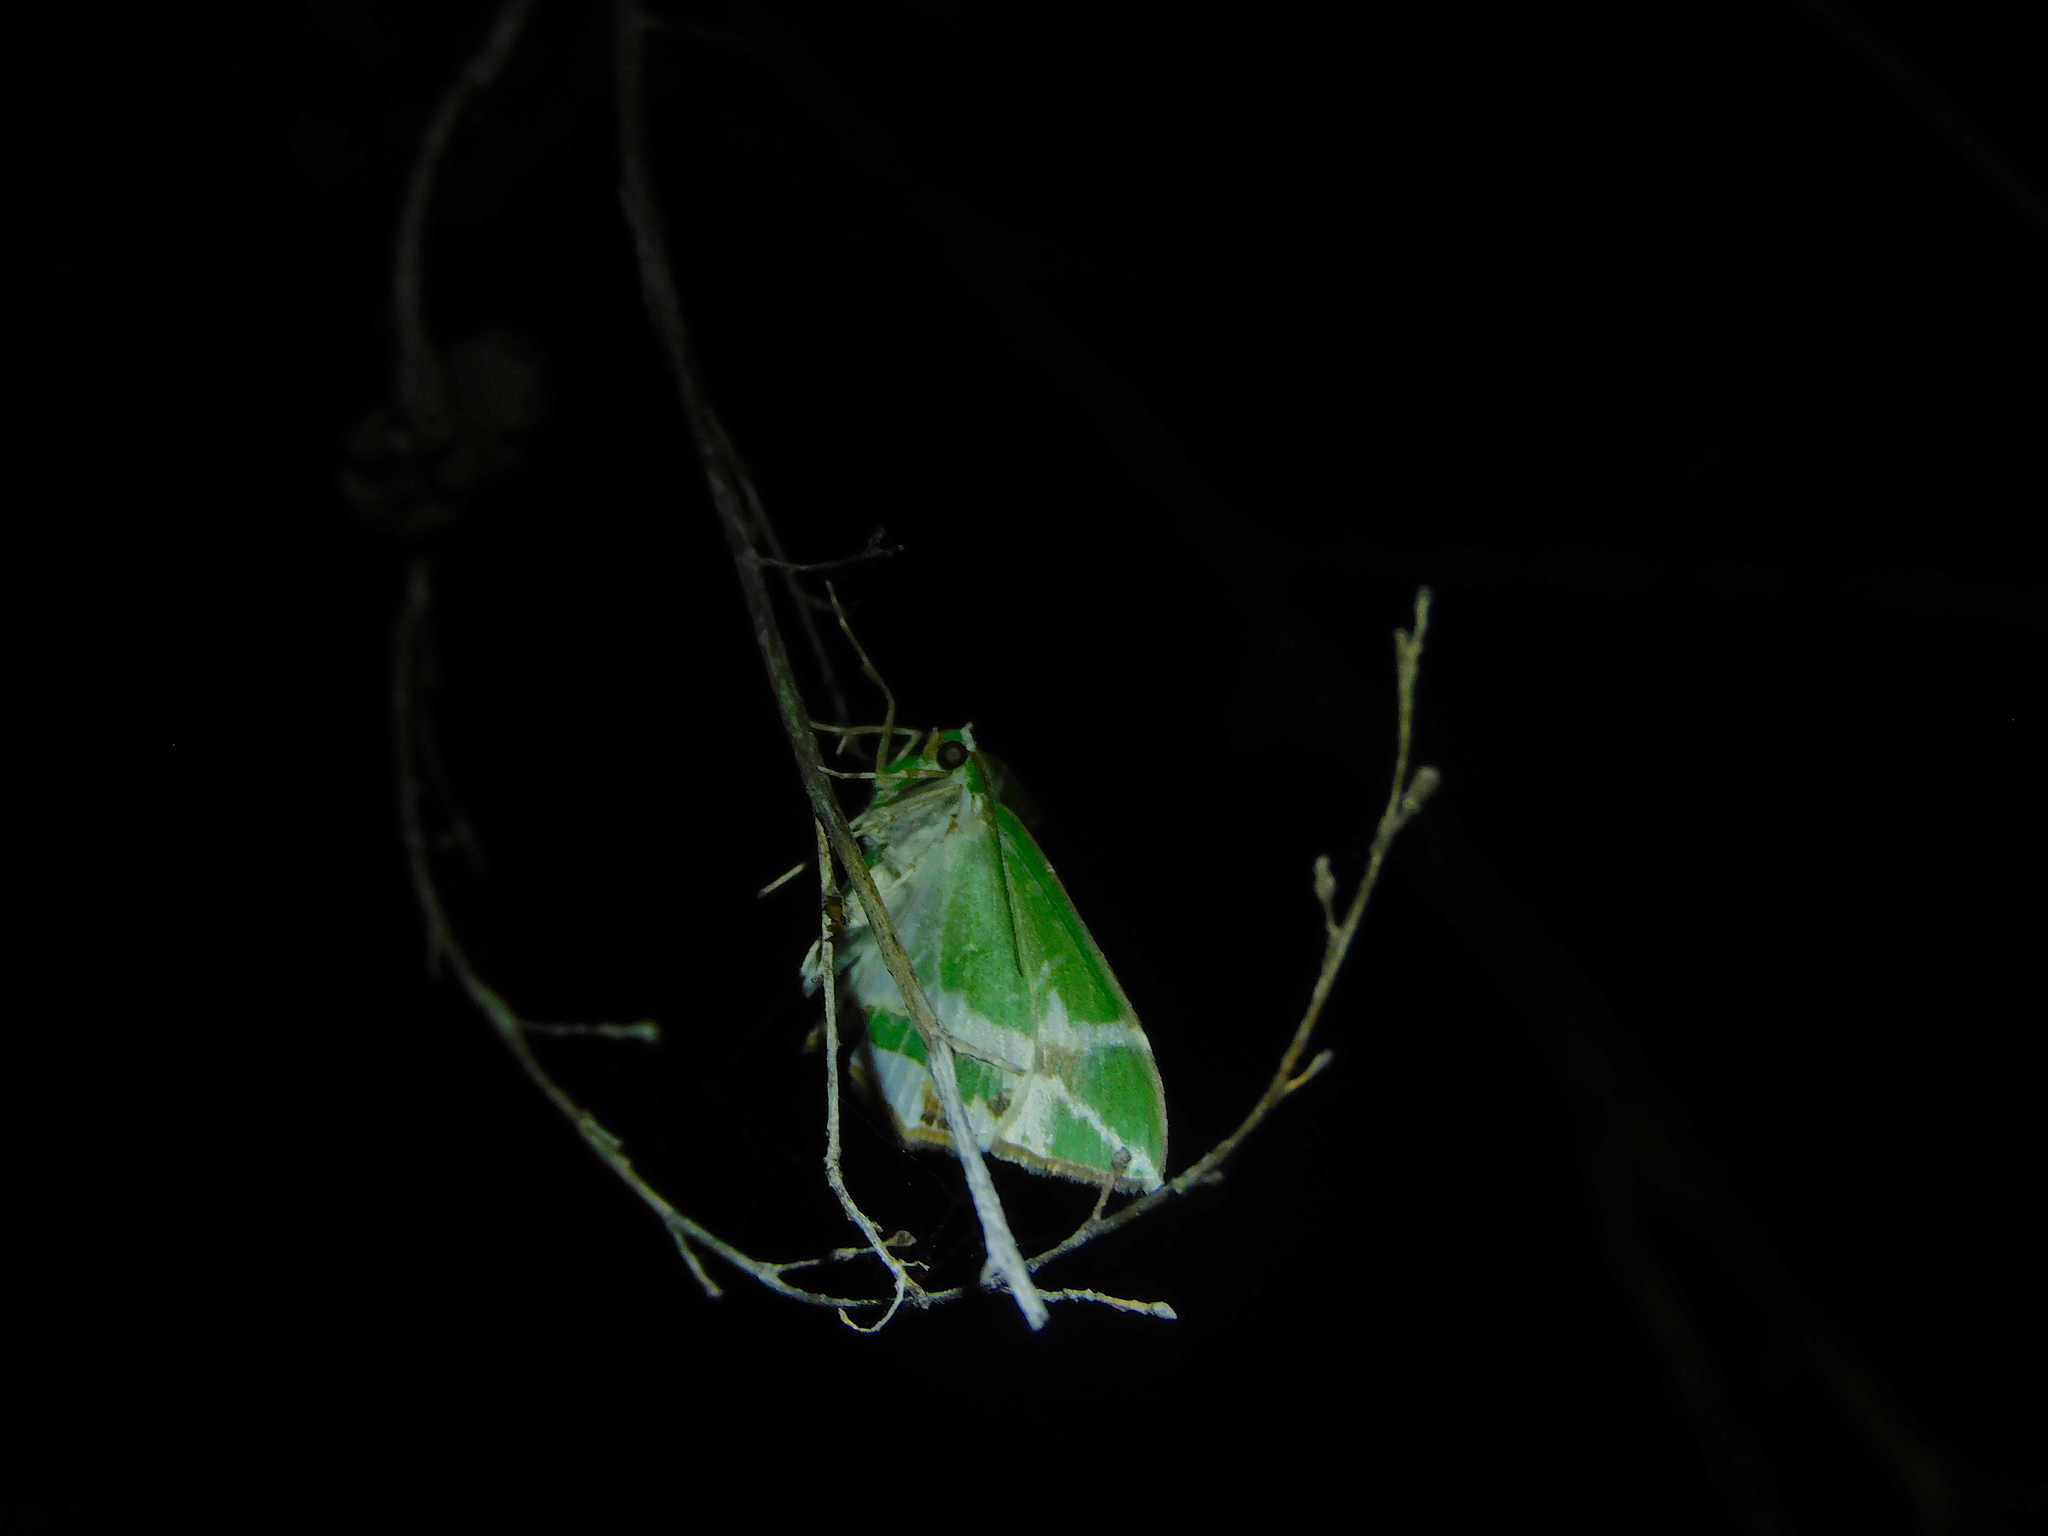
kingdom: Animalia
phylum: Arthropoda
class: Insecta
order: Lepidoptera
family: Geometridae
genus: Chlorodes
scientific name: Chlorodes boisduvalaria
